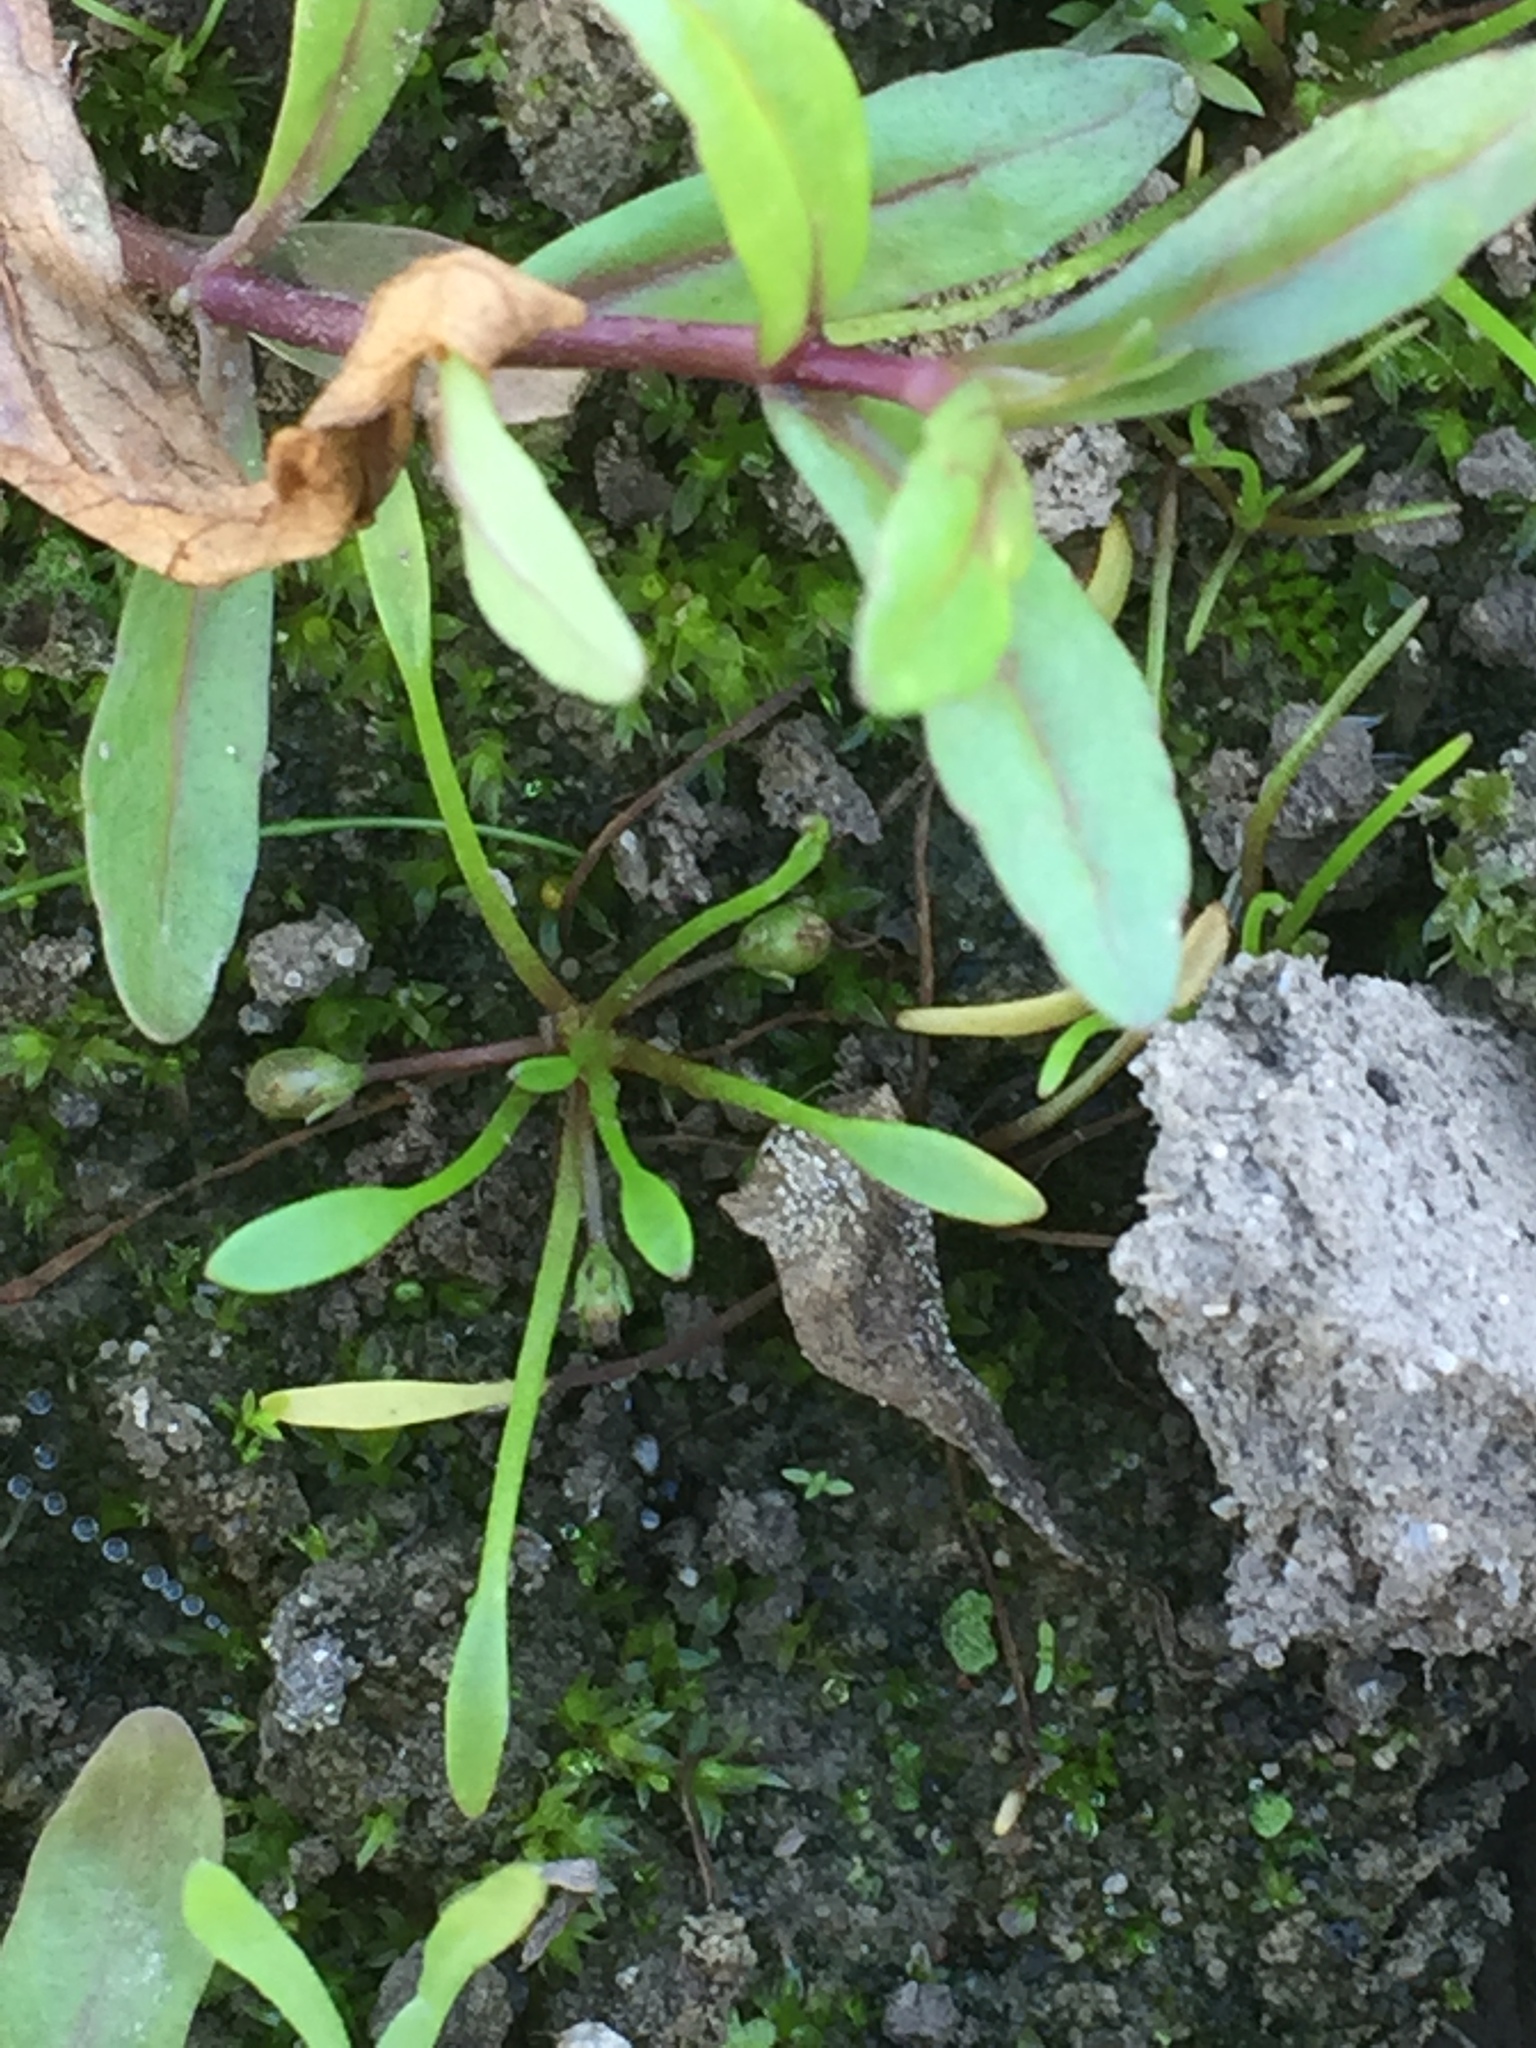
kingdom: Plantae
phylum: Tracheophyta
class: Magnoliopsida
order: Lamiales
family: Scrophulariaceae
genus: Limosella
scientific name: Limosella aquatica
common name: Mudwort
